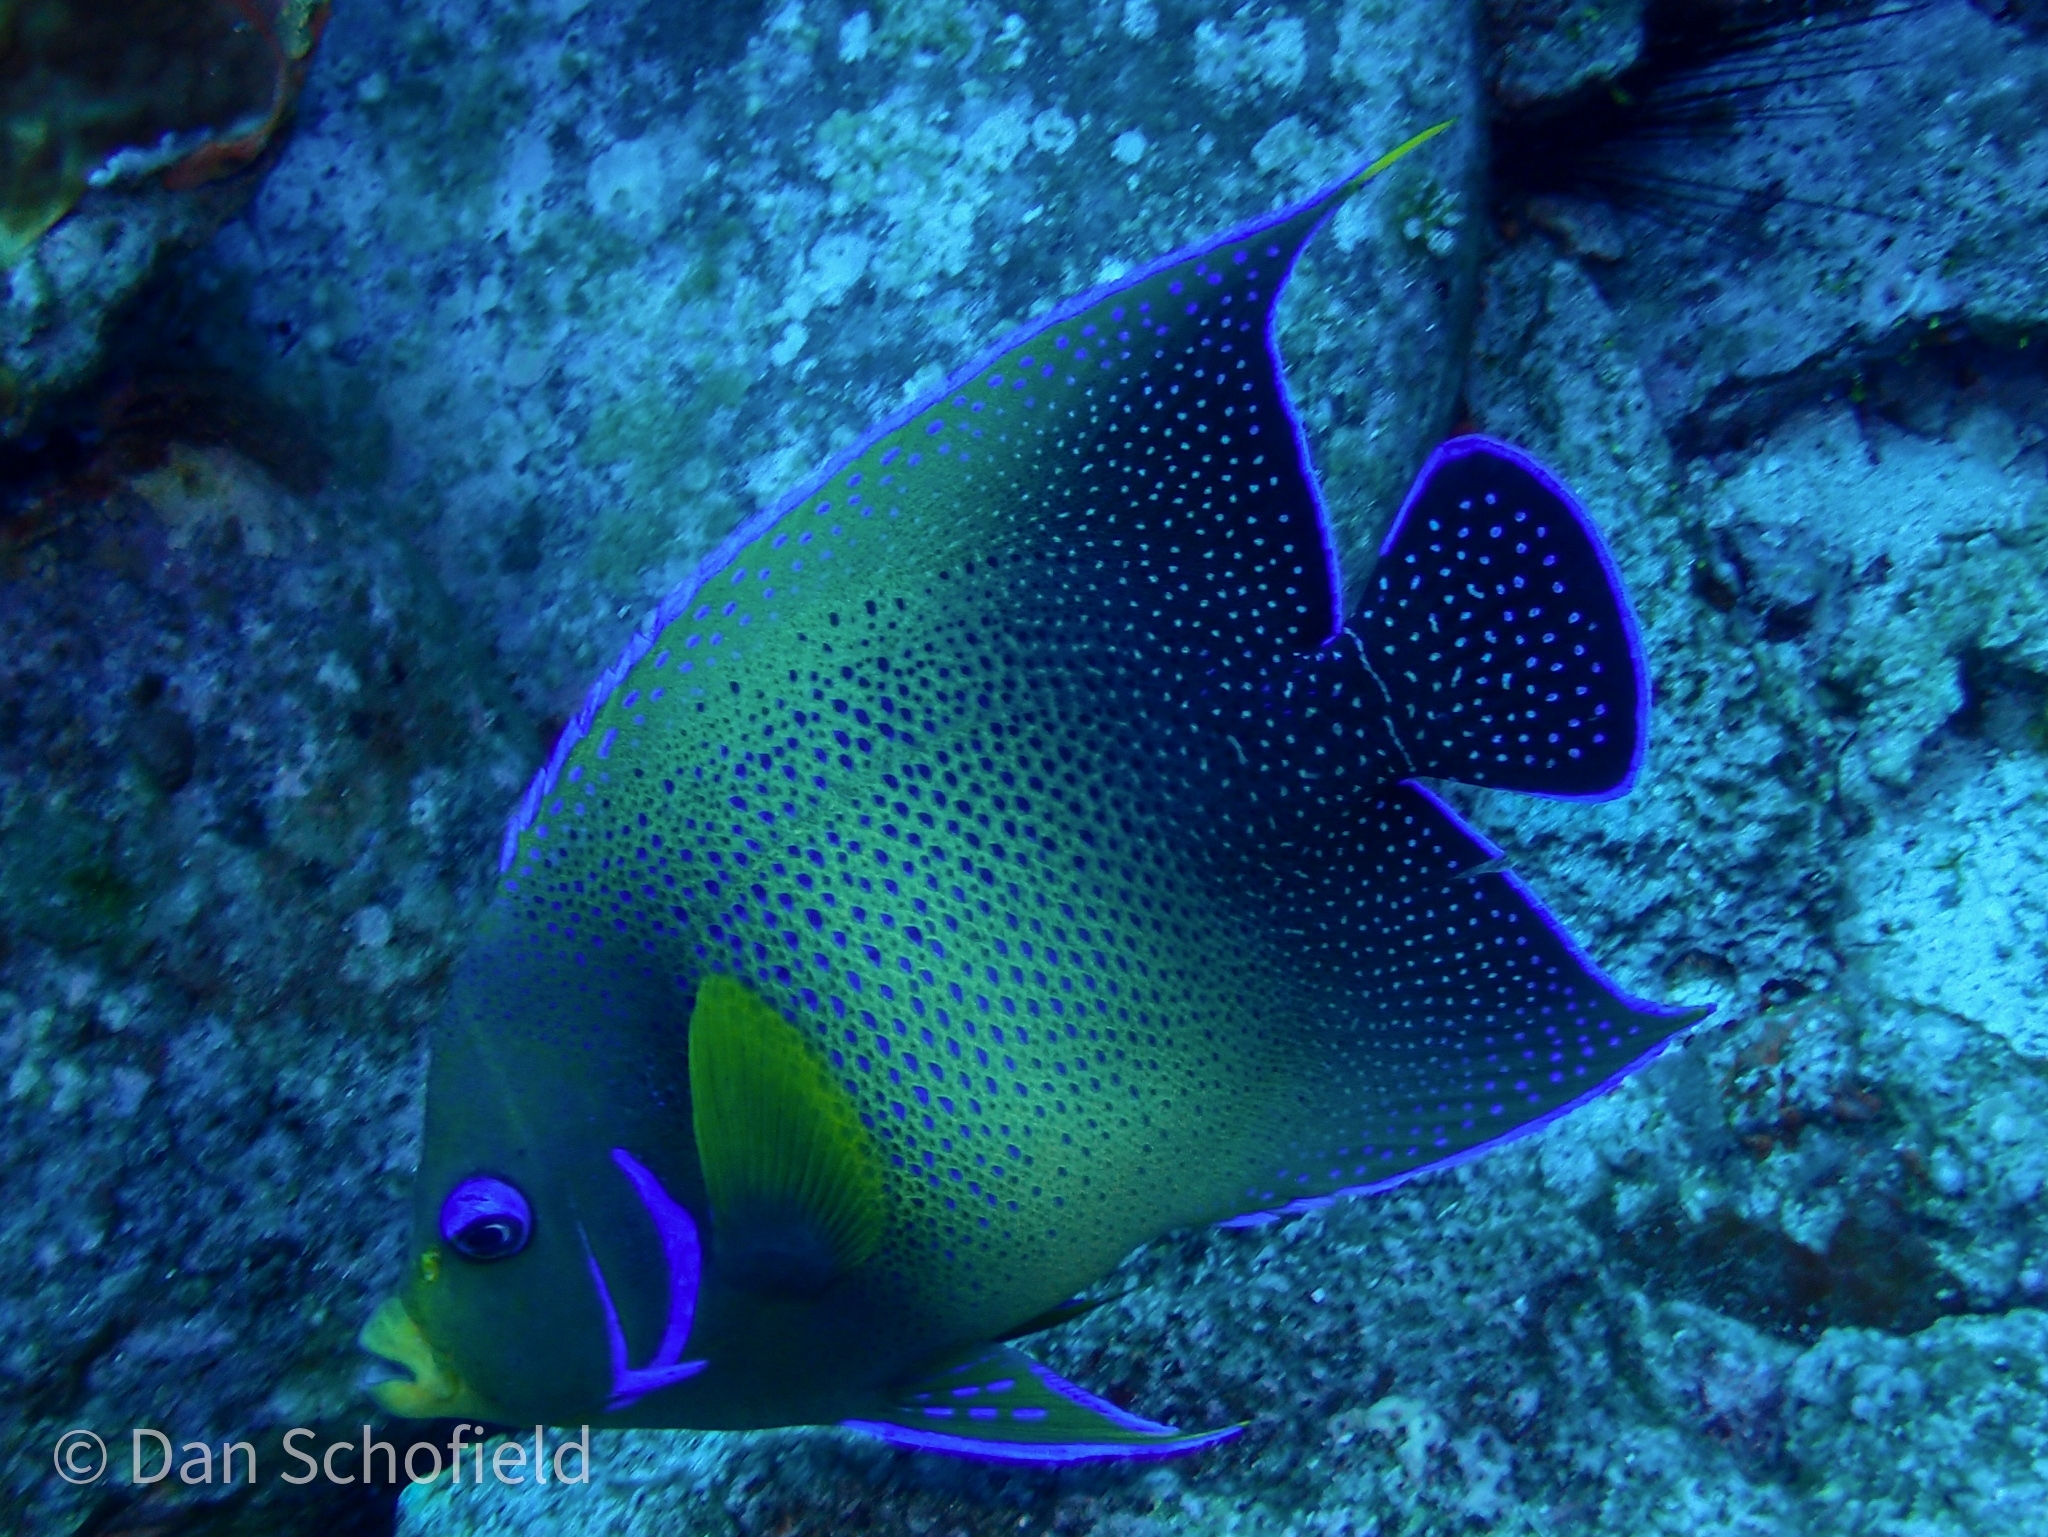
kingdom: Animalia
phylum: Chordata
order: Perciformes
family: Pomacanthidae
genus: Pomacanthus
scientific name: Pomacanthus semicirculatus
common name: Semicircle angelfish
